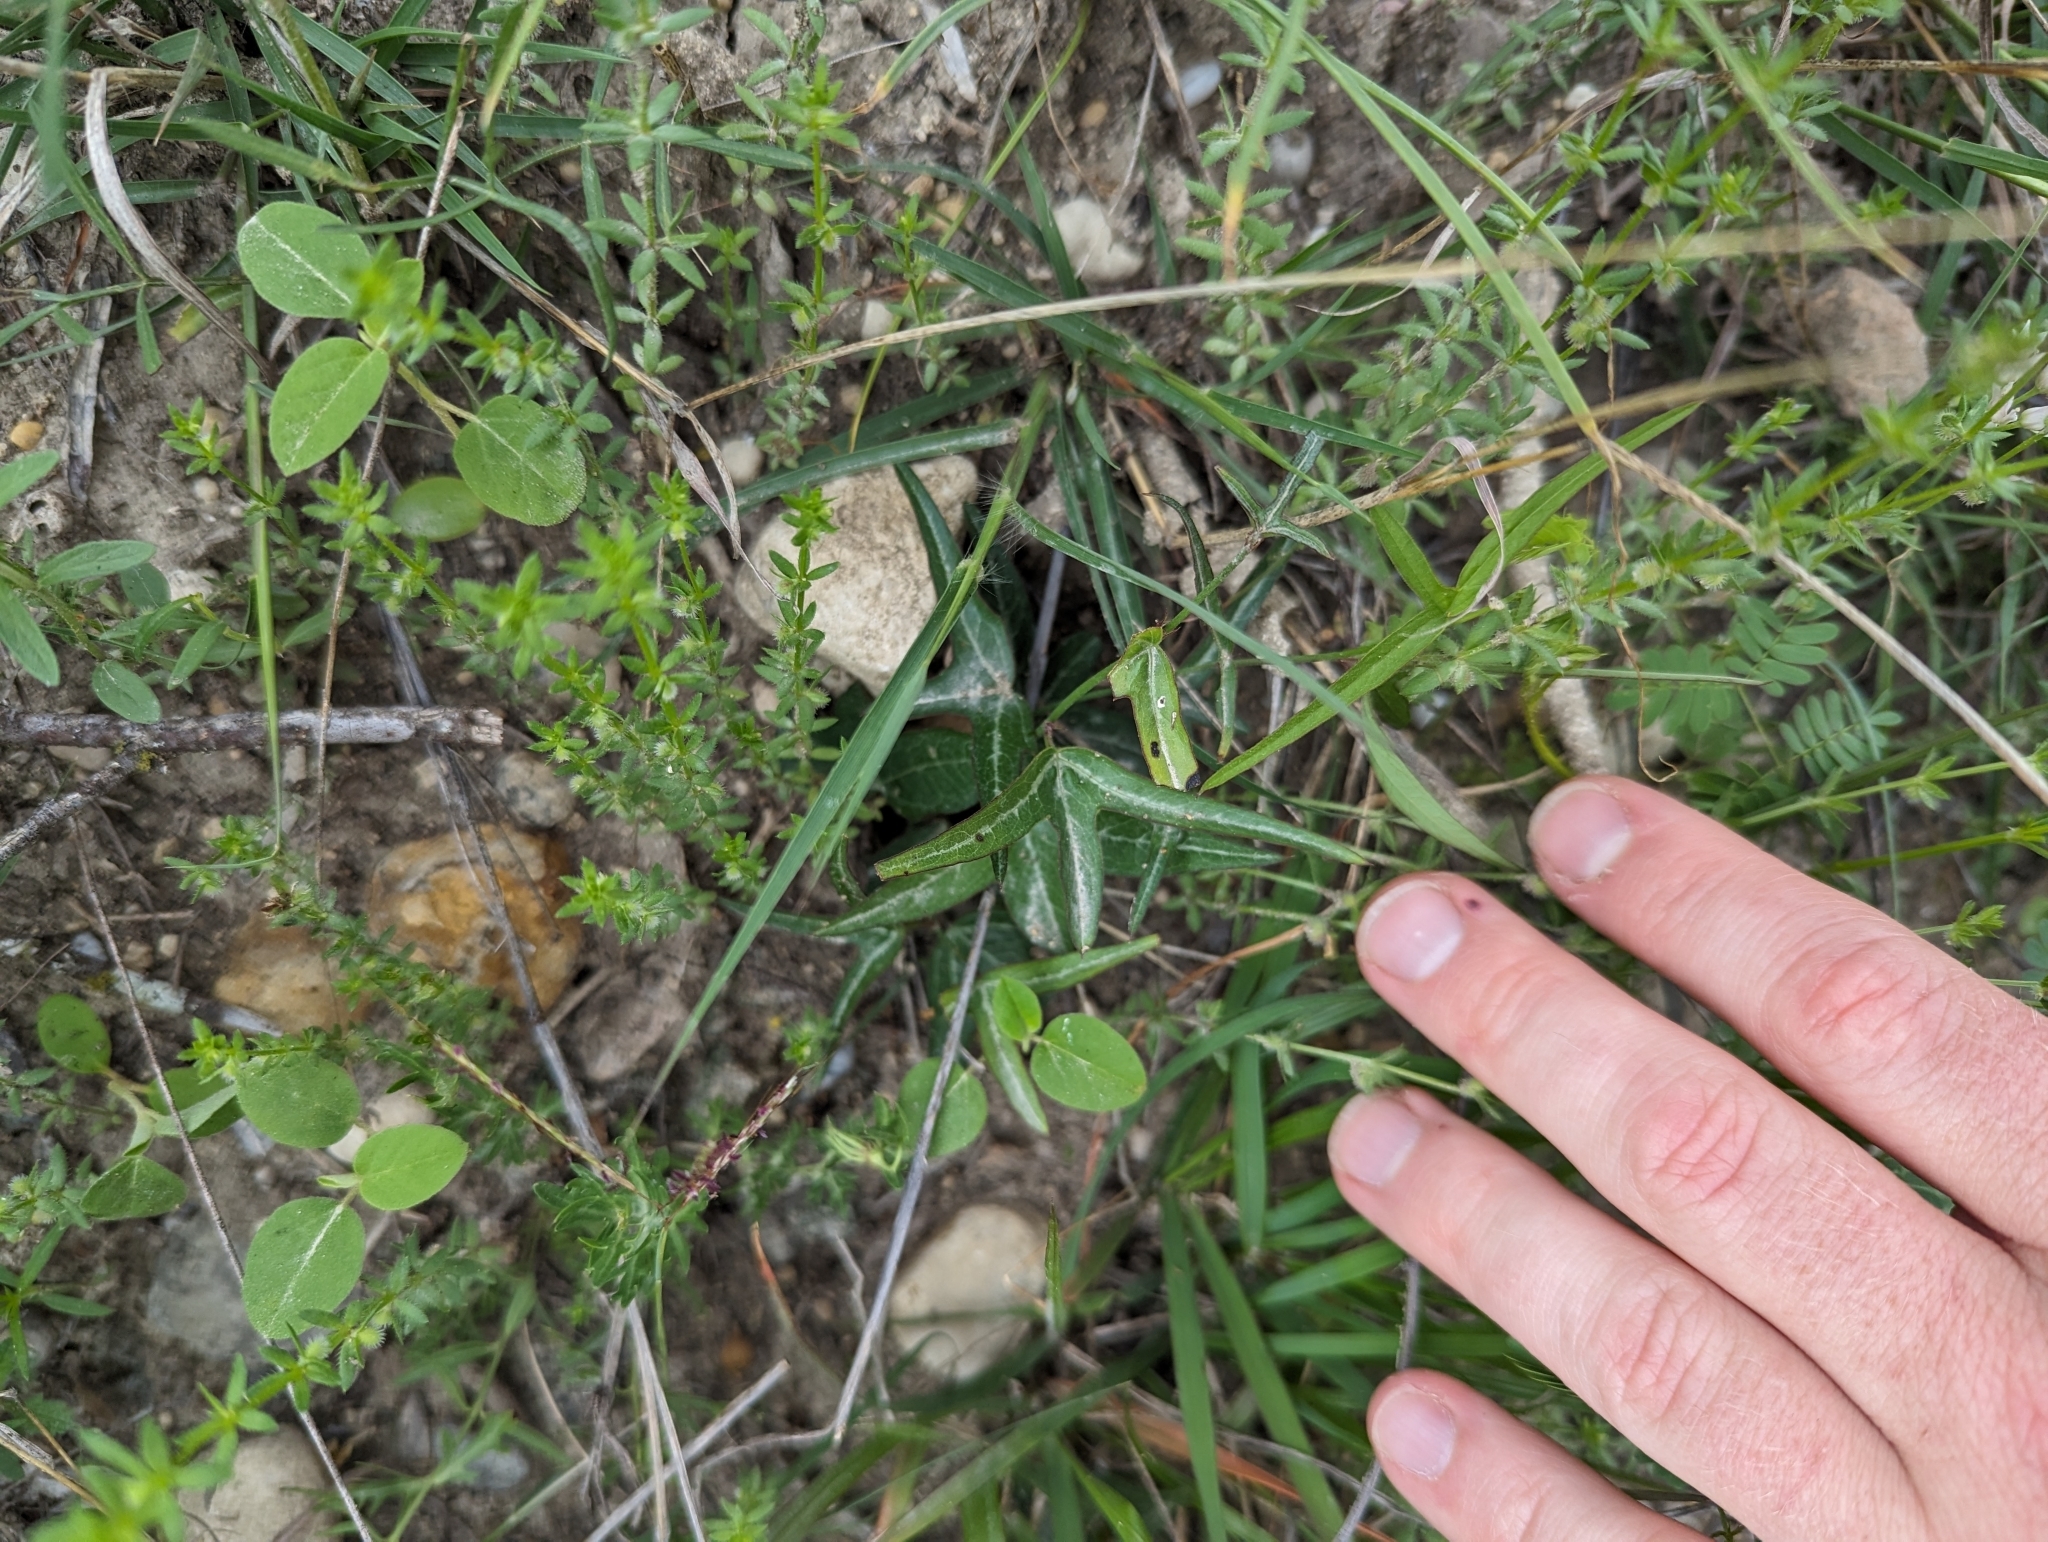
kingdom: Plantae
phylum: Tracheophyta
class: Magnoliopsida
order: Malpighiales
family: Passifloraceae
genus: Passiflora
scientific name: Passiflora tenuiloba
